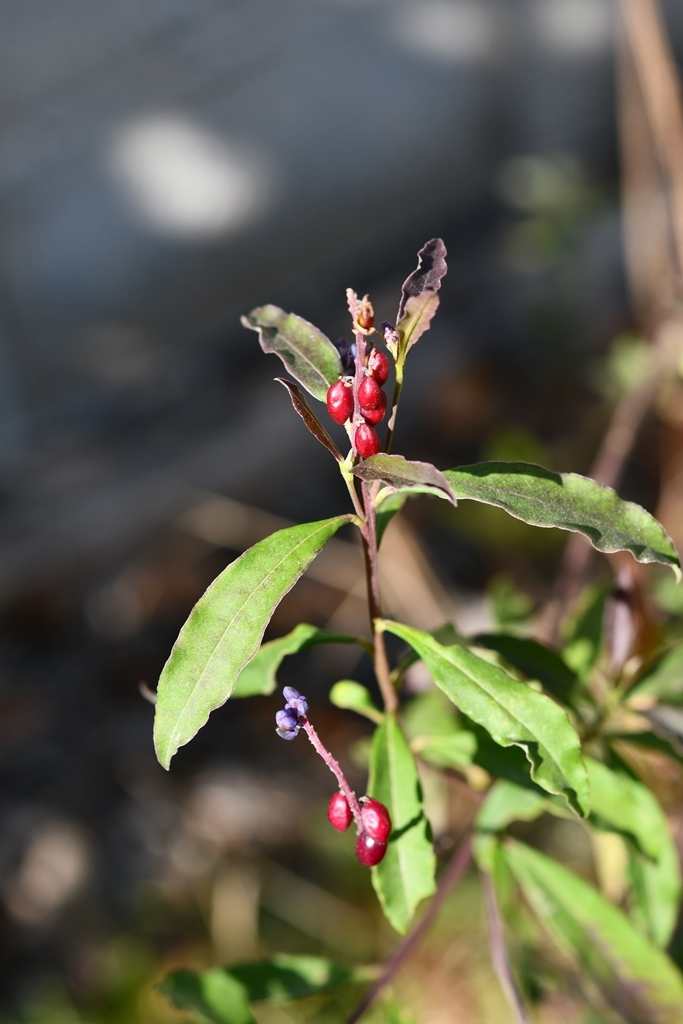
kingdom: Plantae
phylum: Tracheophyta
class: Magnoliopsida
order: Fabales
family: Polygalaceae
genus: Monnina
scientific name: Monnina xalapensis
